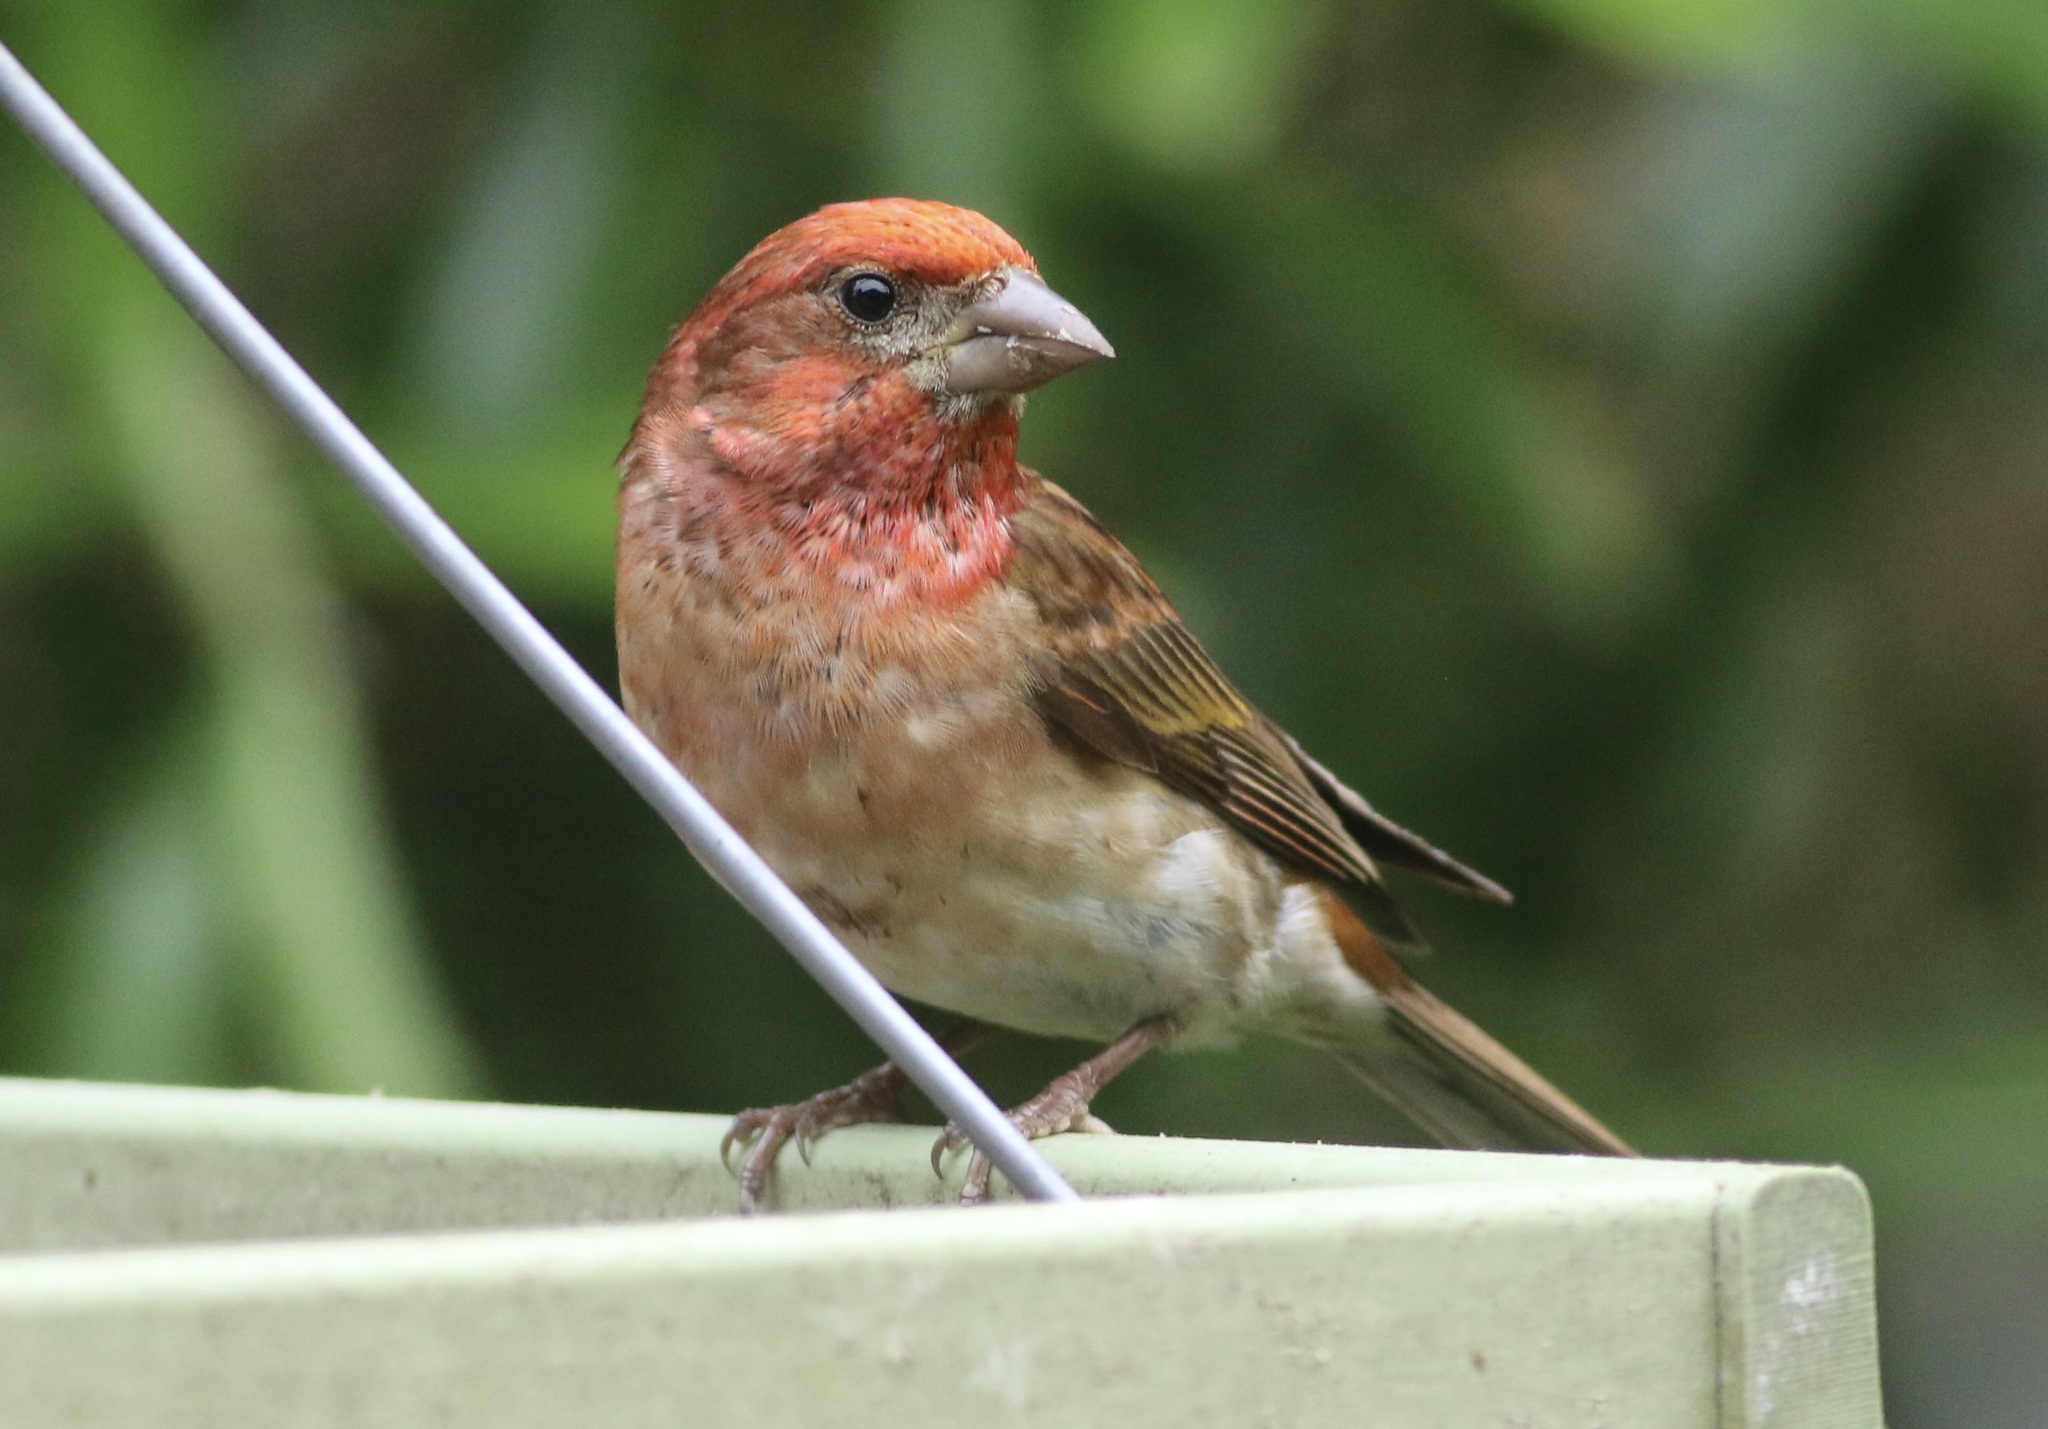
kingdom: Animalia
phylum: Chordata
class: Aves
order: Passeriformes
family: Fringillidae
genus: Haemorhous
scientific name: Haemorhous purpureus
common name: Purple finch
